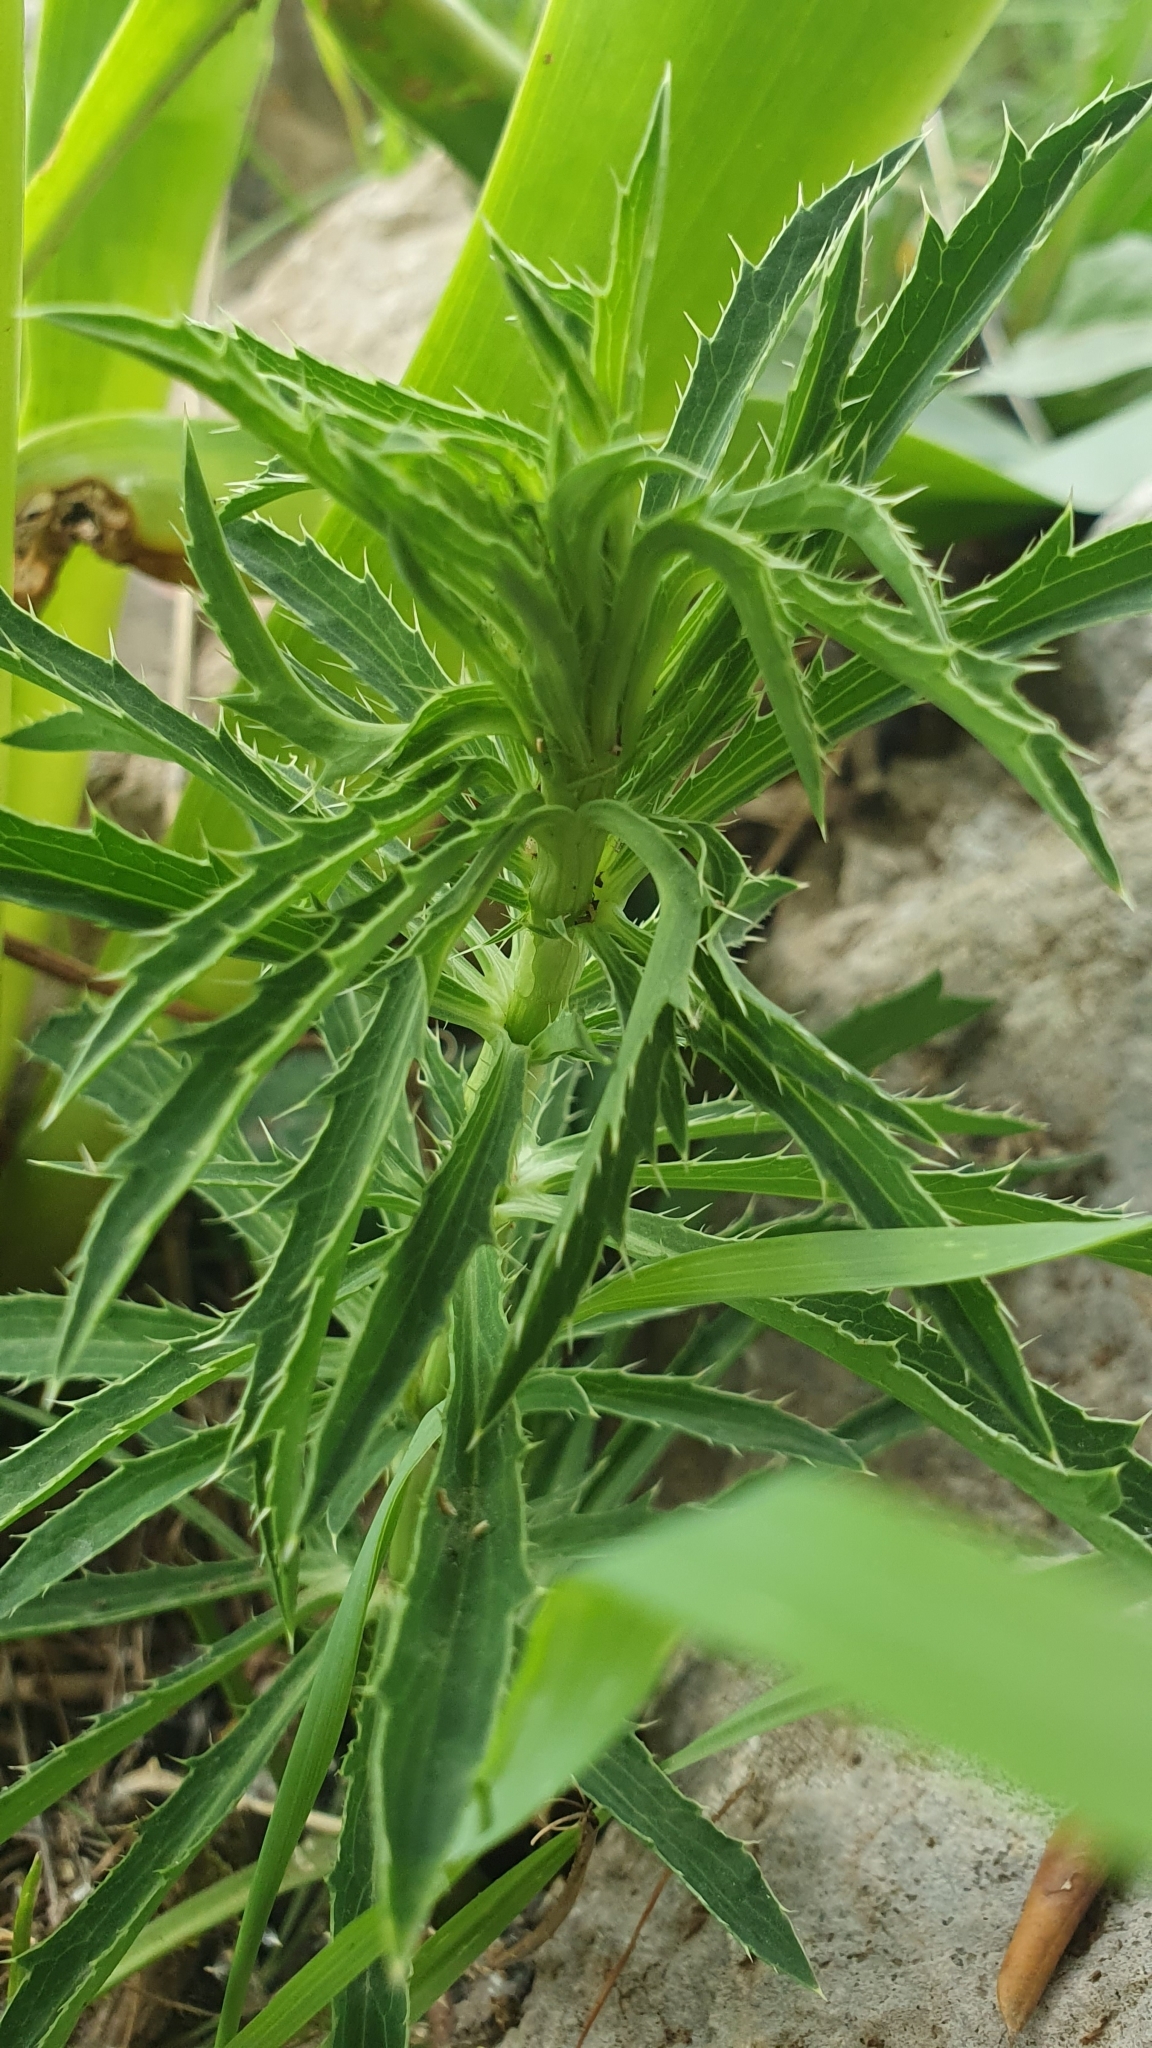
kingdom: Plantae
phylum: Tracheophyta
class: Magnoliopsida
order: Apiales
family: Apiaceae
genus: Eryngium
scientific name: Eryngium tricuspidatum
